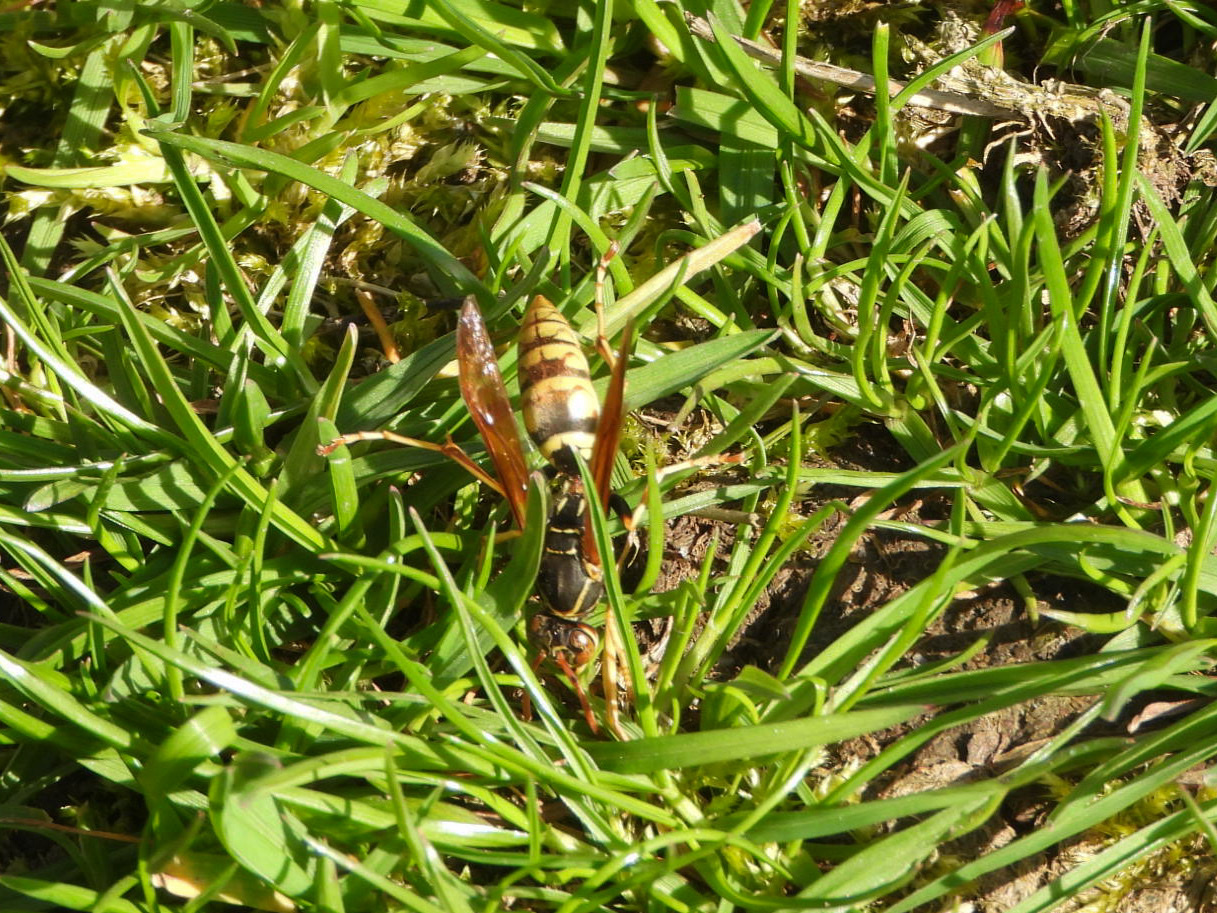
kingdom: Animalia
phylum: Arthropoda
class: Insecta
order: Hymenoptera
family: Eumenidae
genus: Polistes
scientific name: Polistes aurifer
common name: Paper wasp
